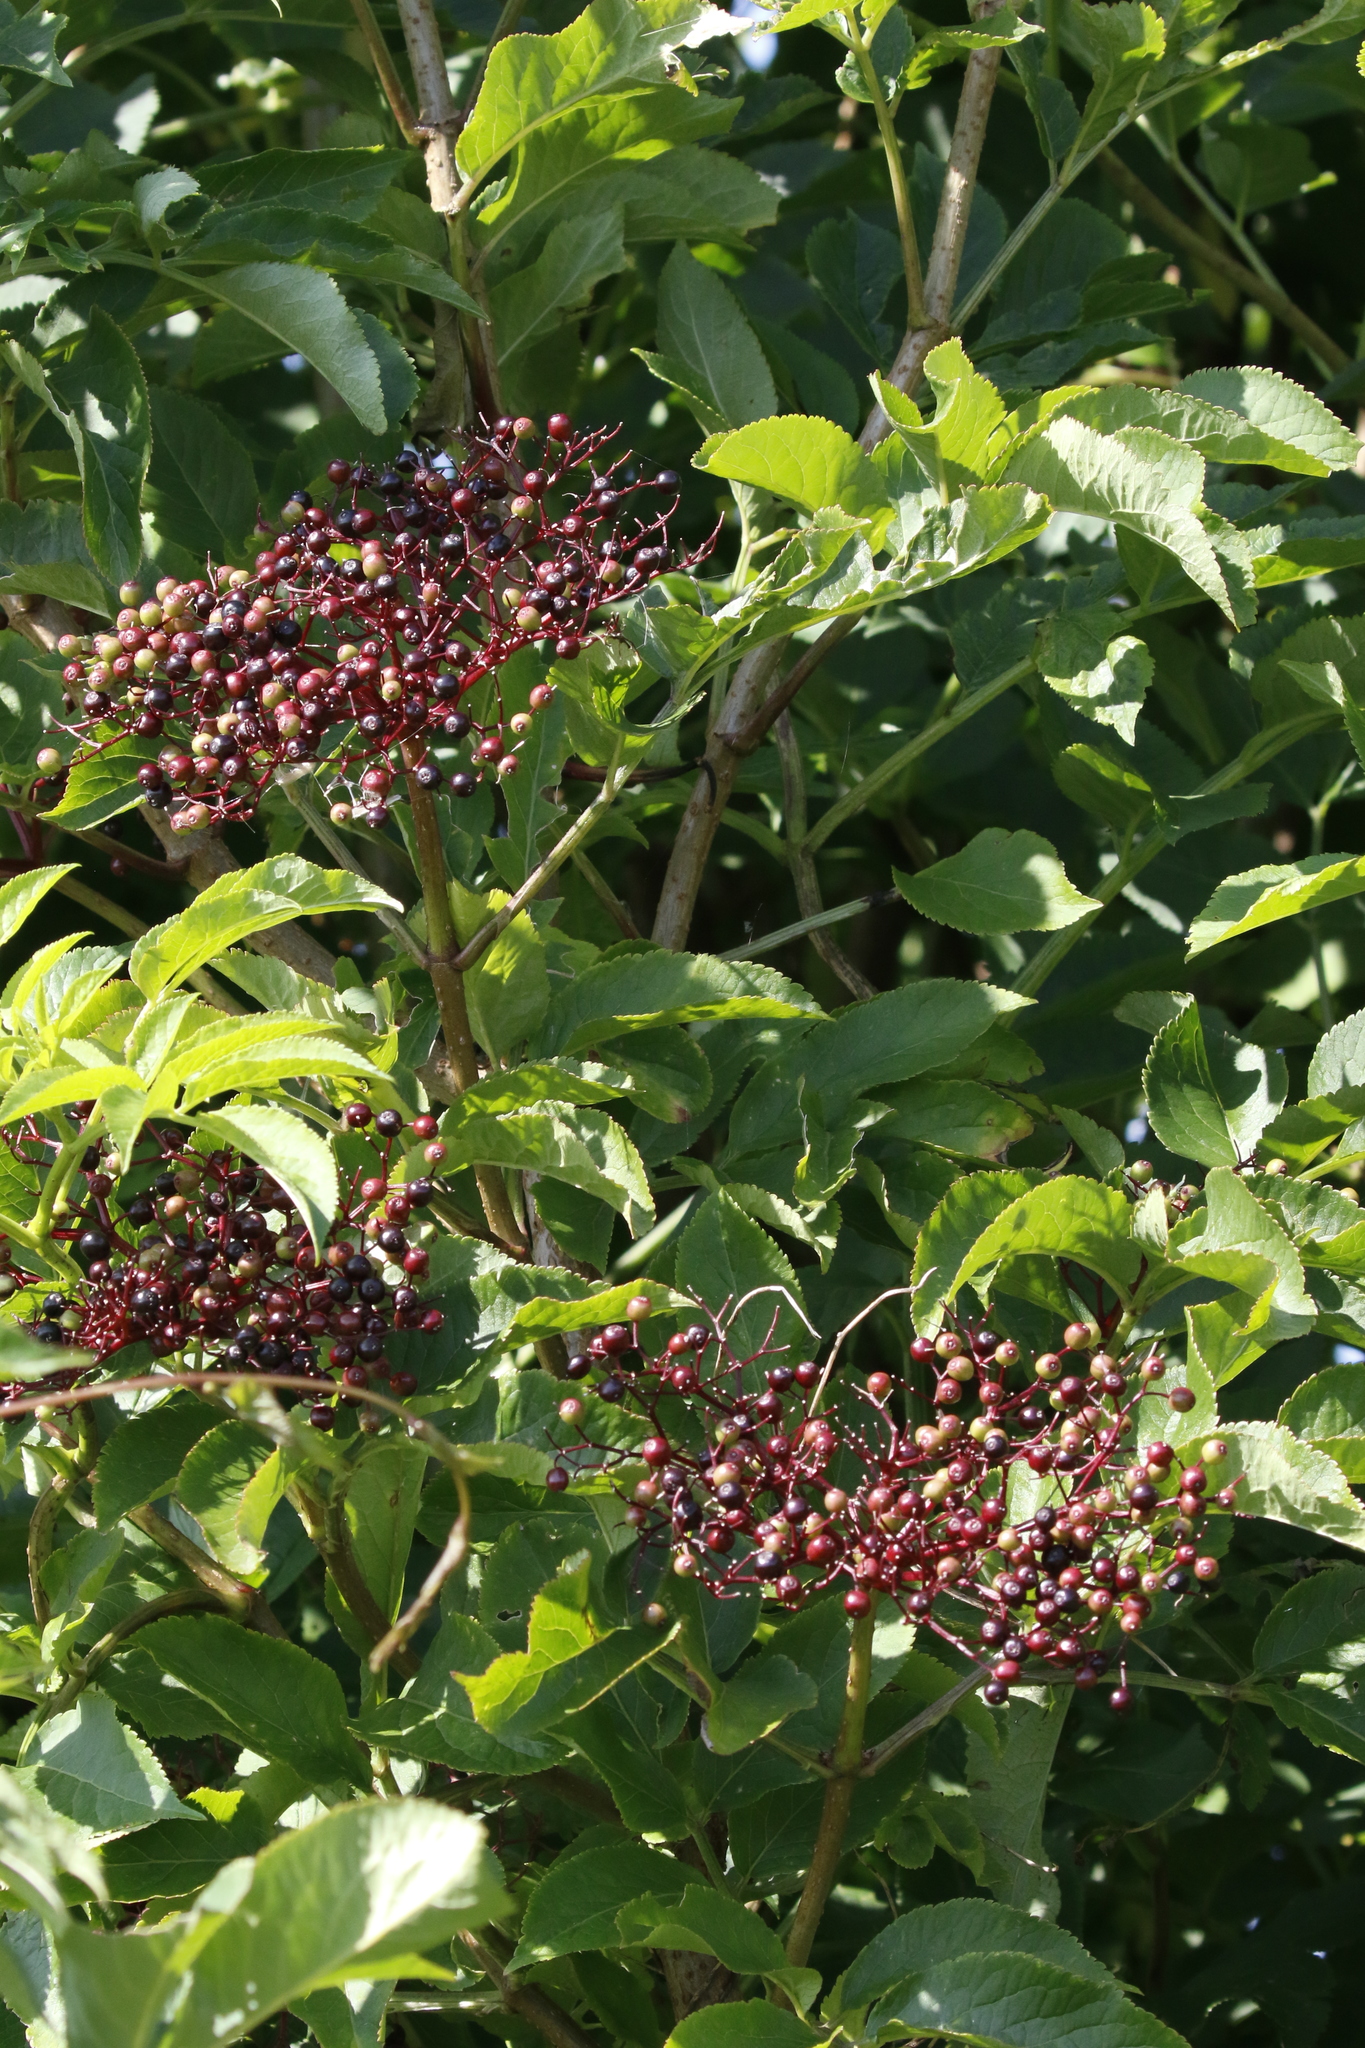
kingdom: Plantae
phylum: Tracheophyta
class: Magnoliopsida
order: Dipsacales
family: Viburnaceae
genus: Sambucus
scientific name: Sambucus nigra
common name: Elder
